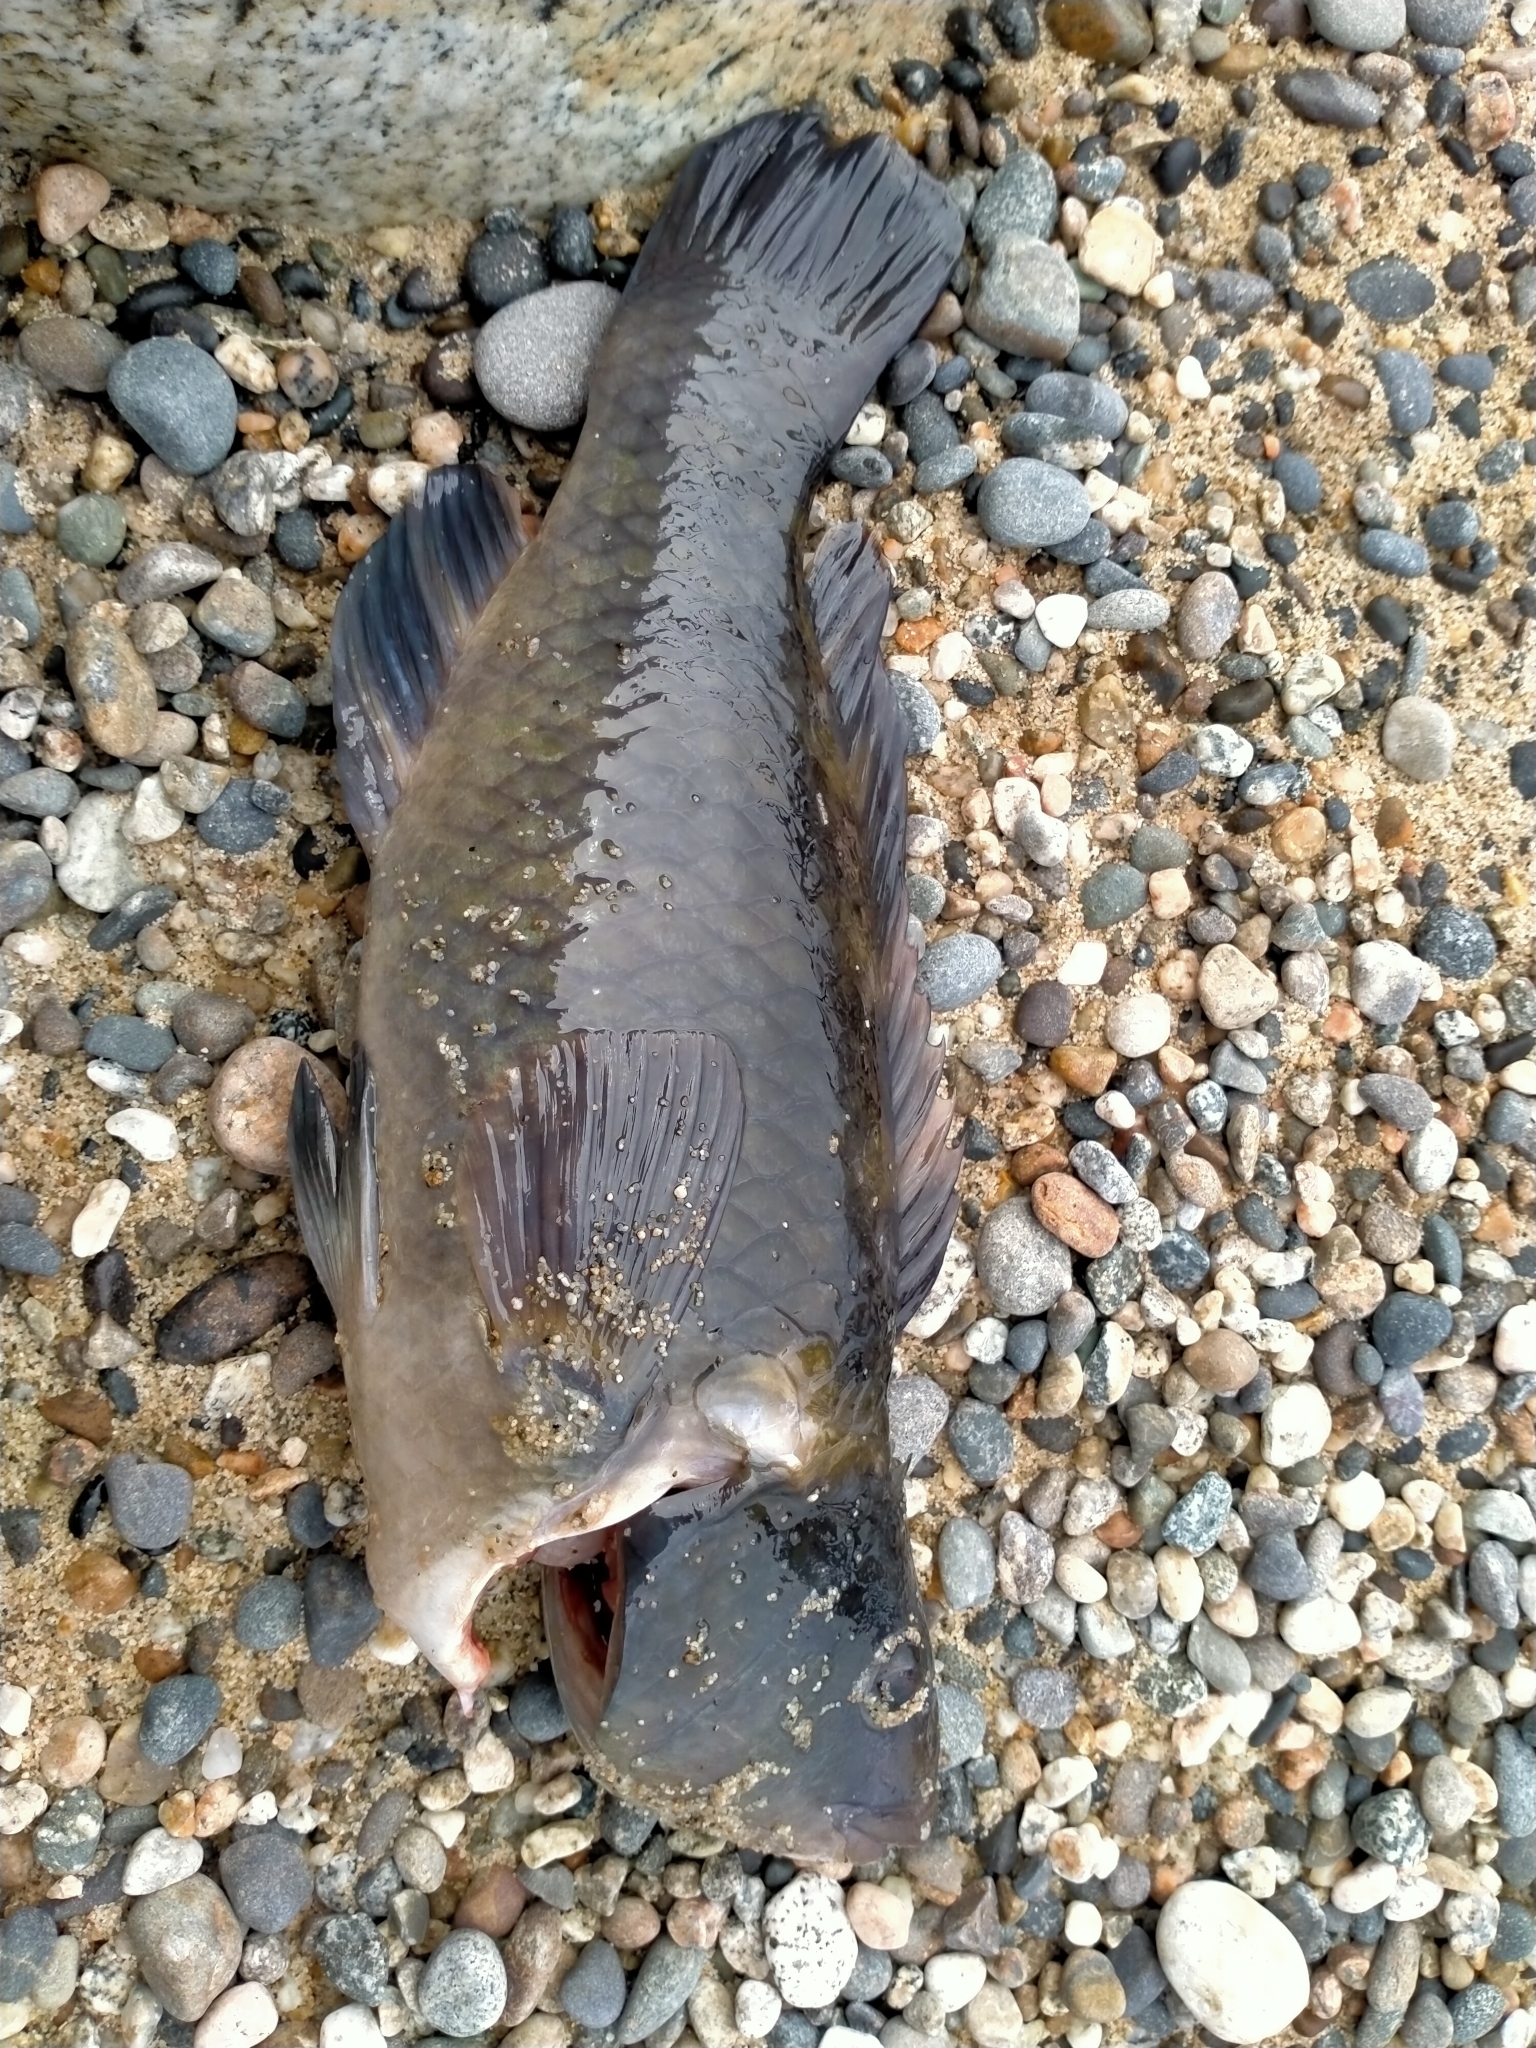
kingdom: Animalia
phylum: Chordata
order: Perciformes
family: Labridae
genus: Notolabrus
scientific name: Notolabrus fucicola
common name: Banded parrotfish
